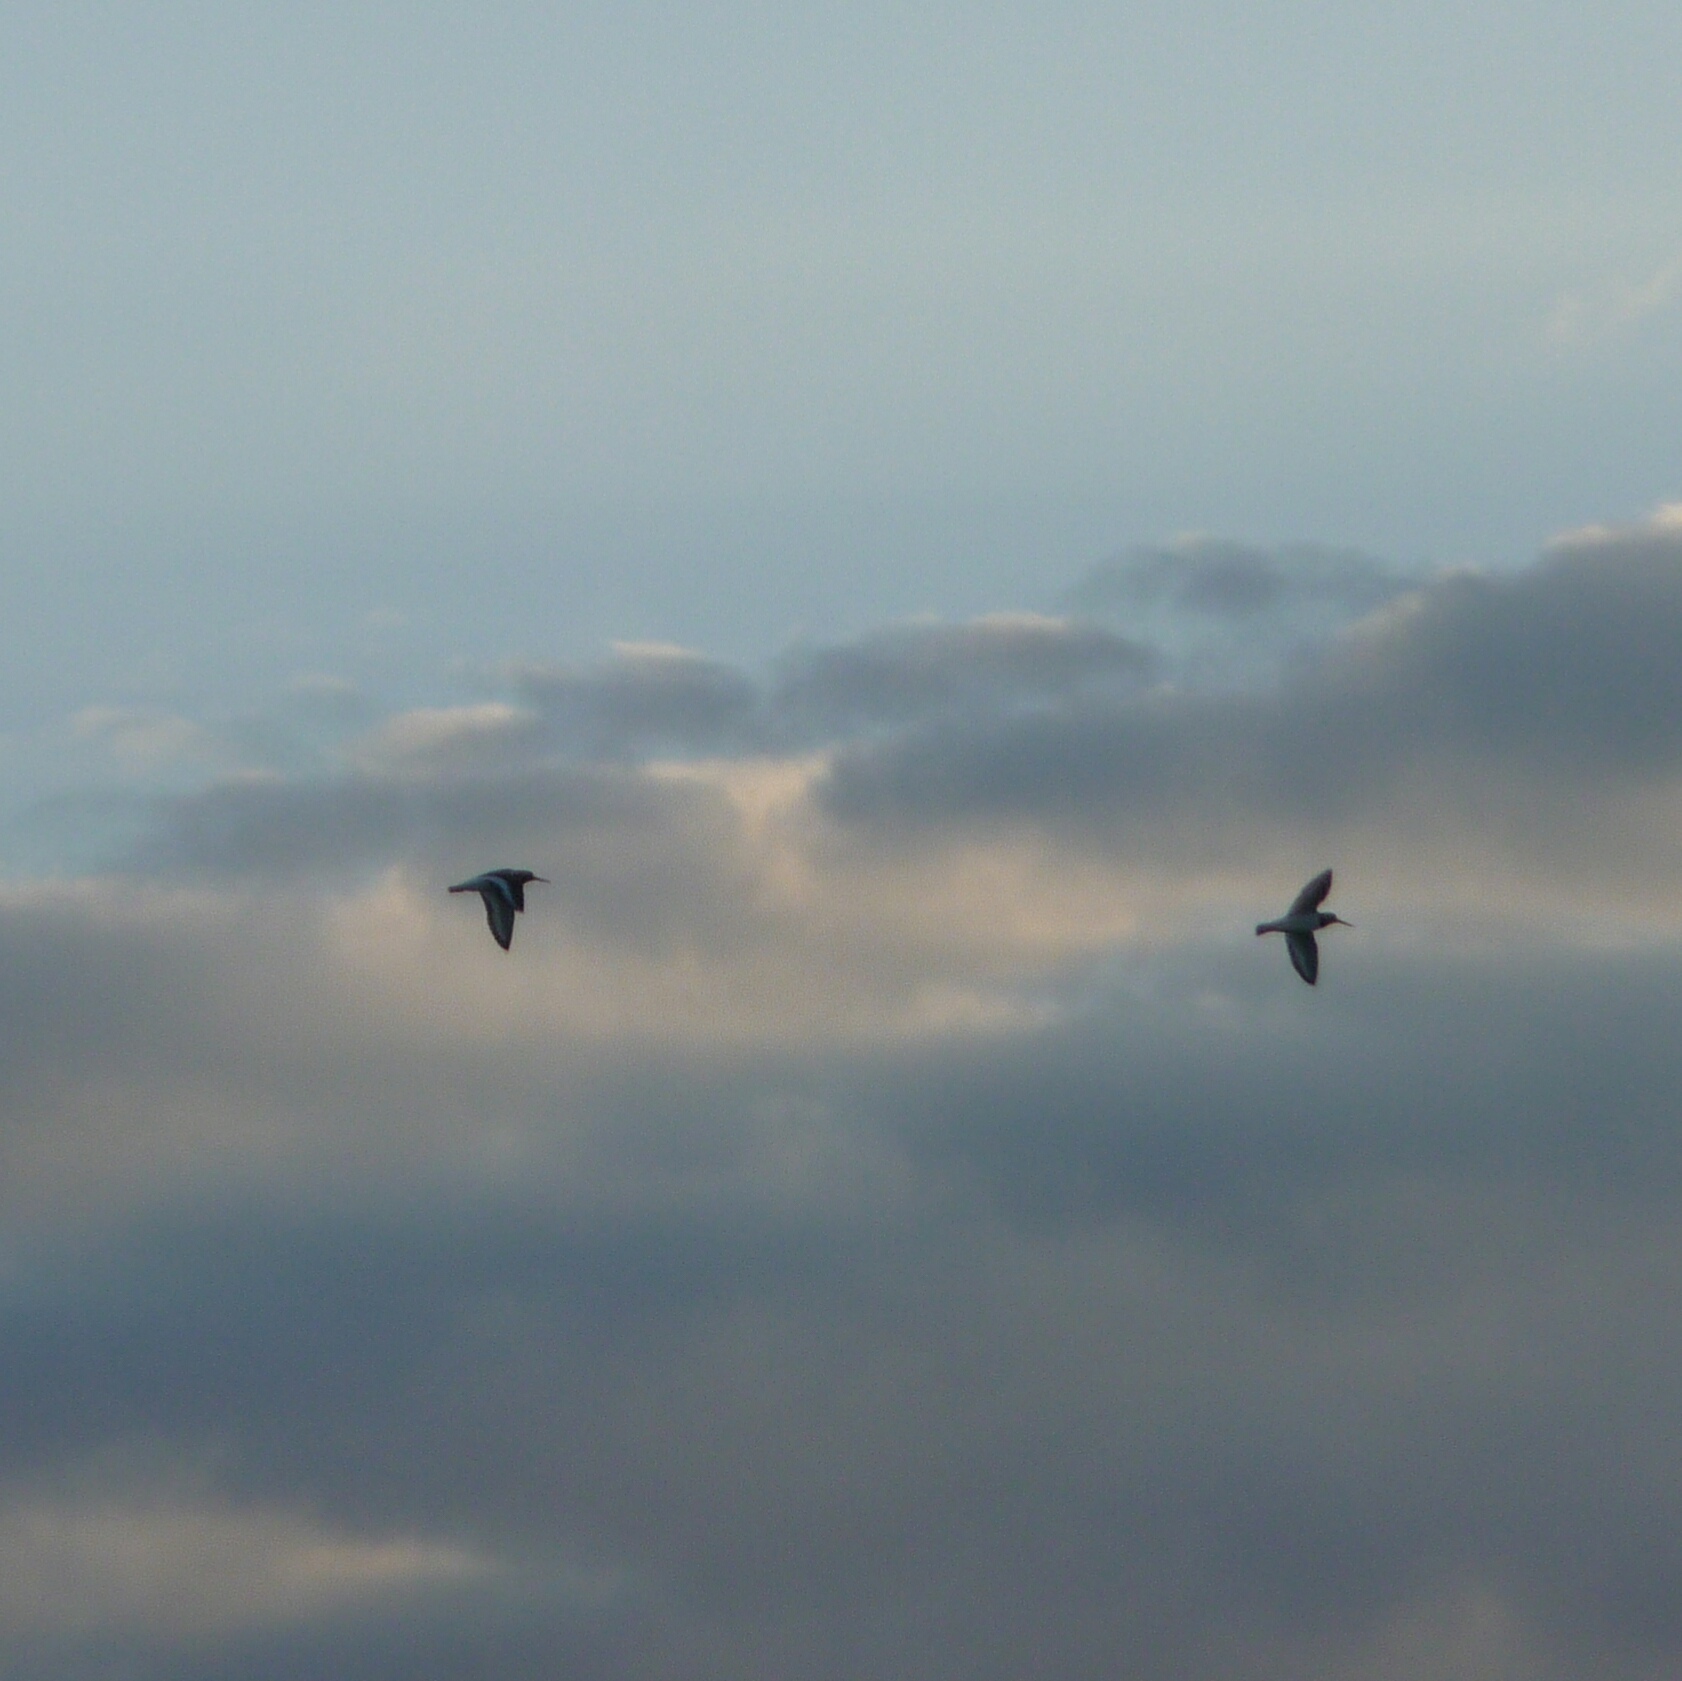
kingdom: Animalia
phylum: Chordata
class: Aves
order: Charadriiformes
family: Haematopodidae
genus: Haematopus
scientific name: Haematopus ostralegus
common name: Eurasian oystercatcher
